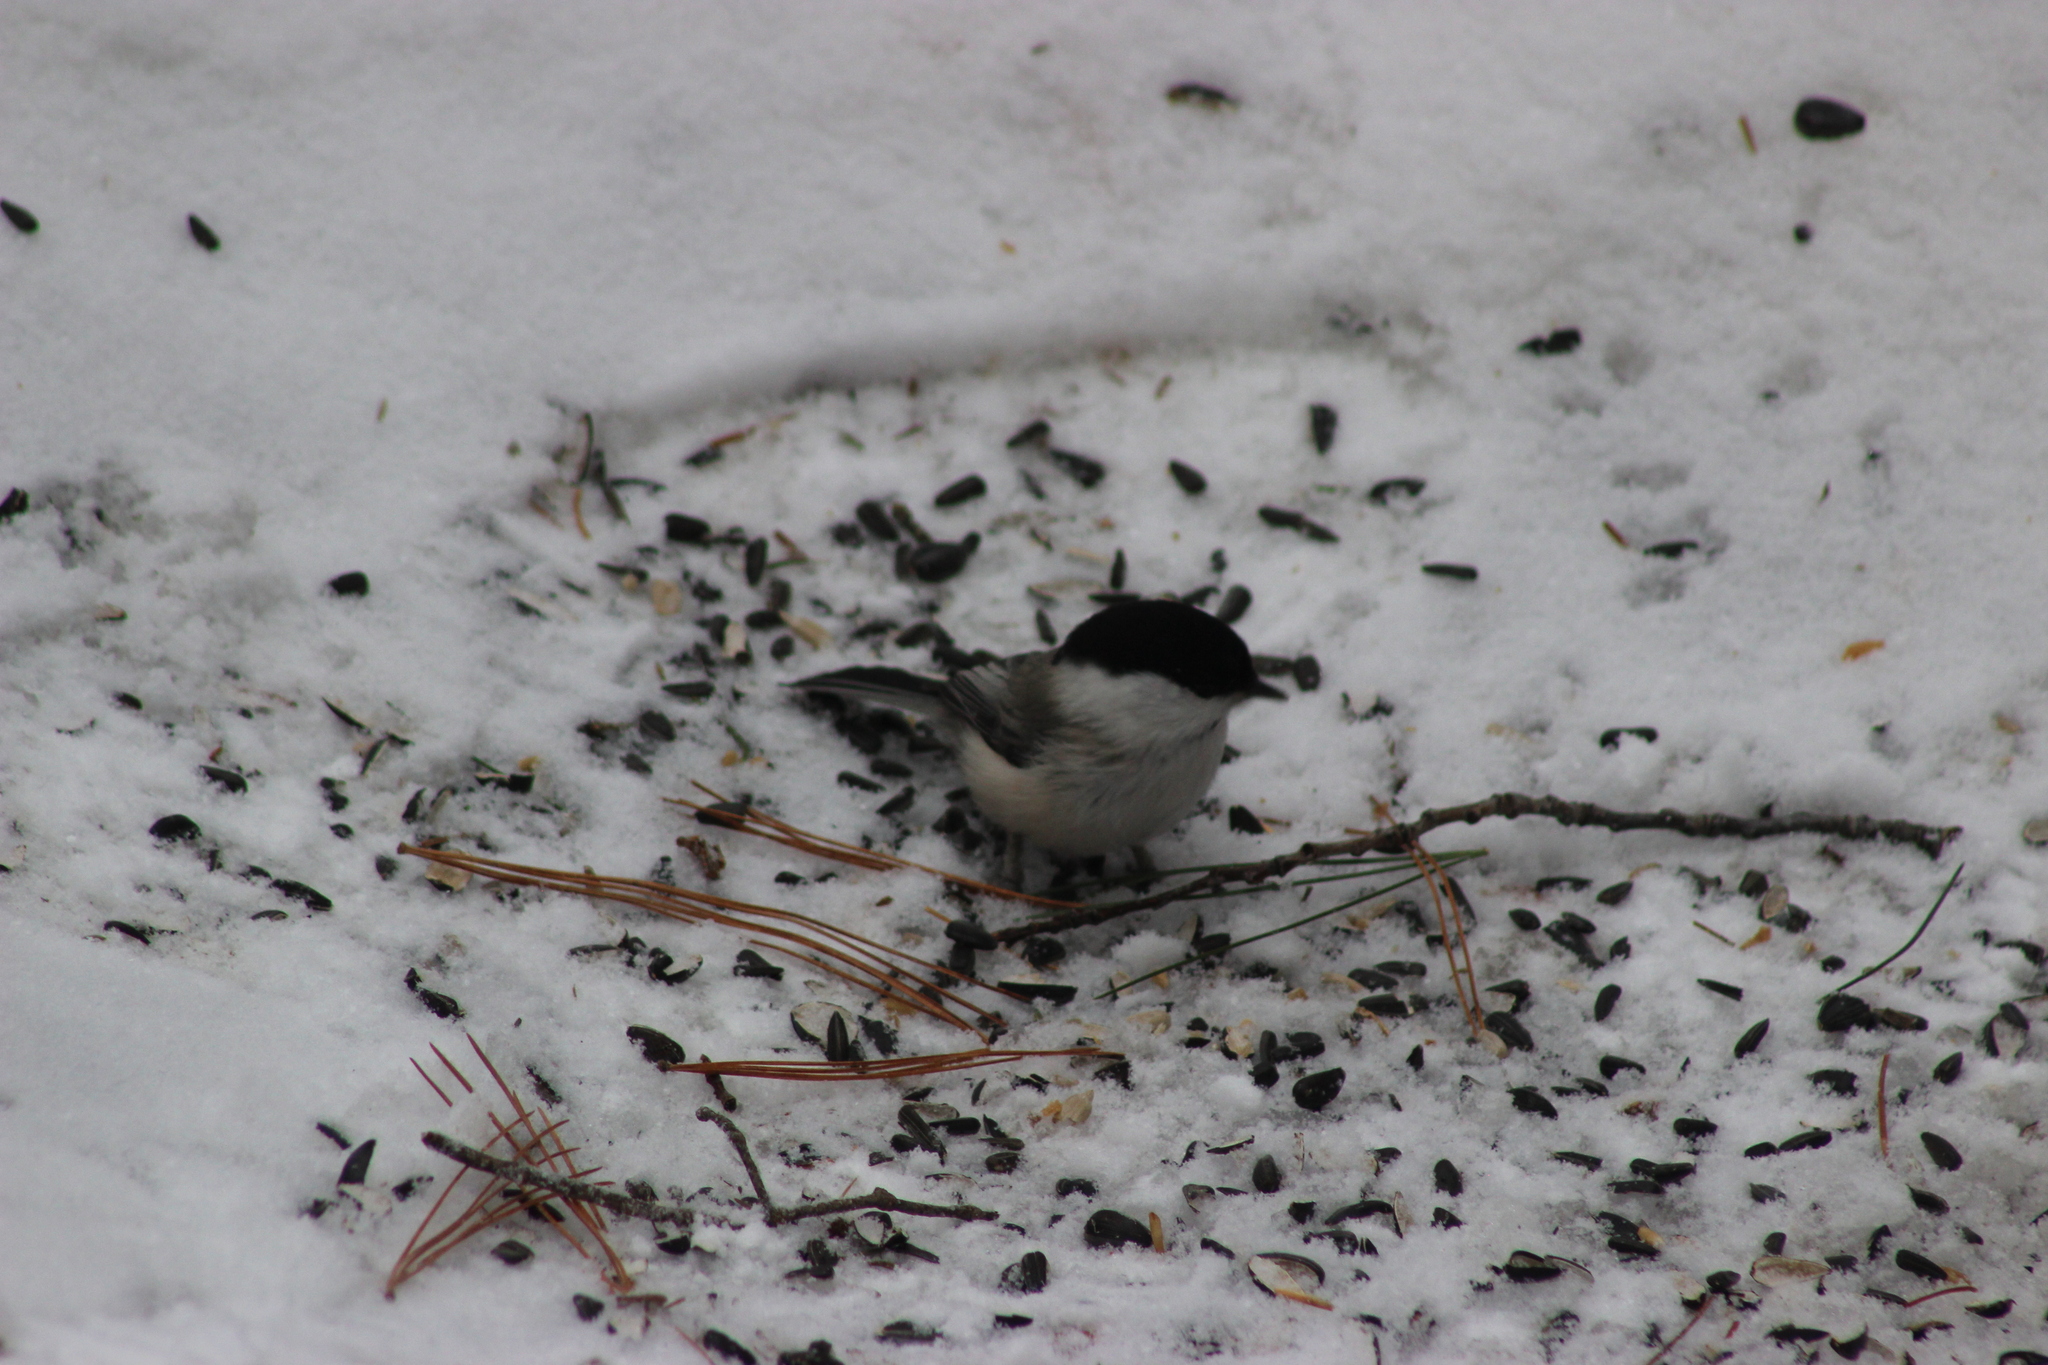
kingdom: Animalia
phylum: Chordata
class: Aves
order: Passeriformes
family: Paridae
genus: Poecile
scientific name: Poecile montanus
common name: Willow tit
